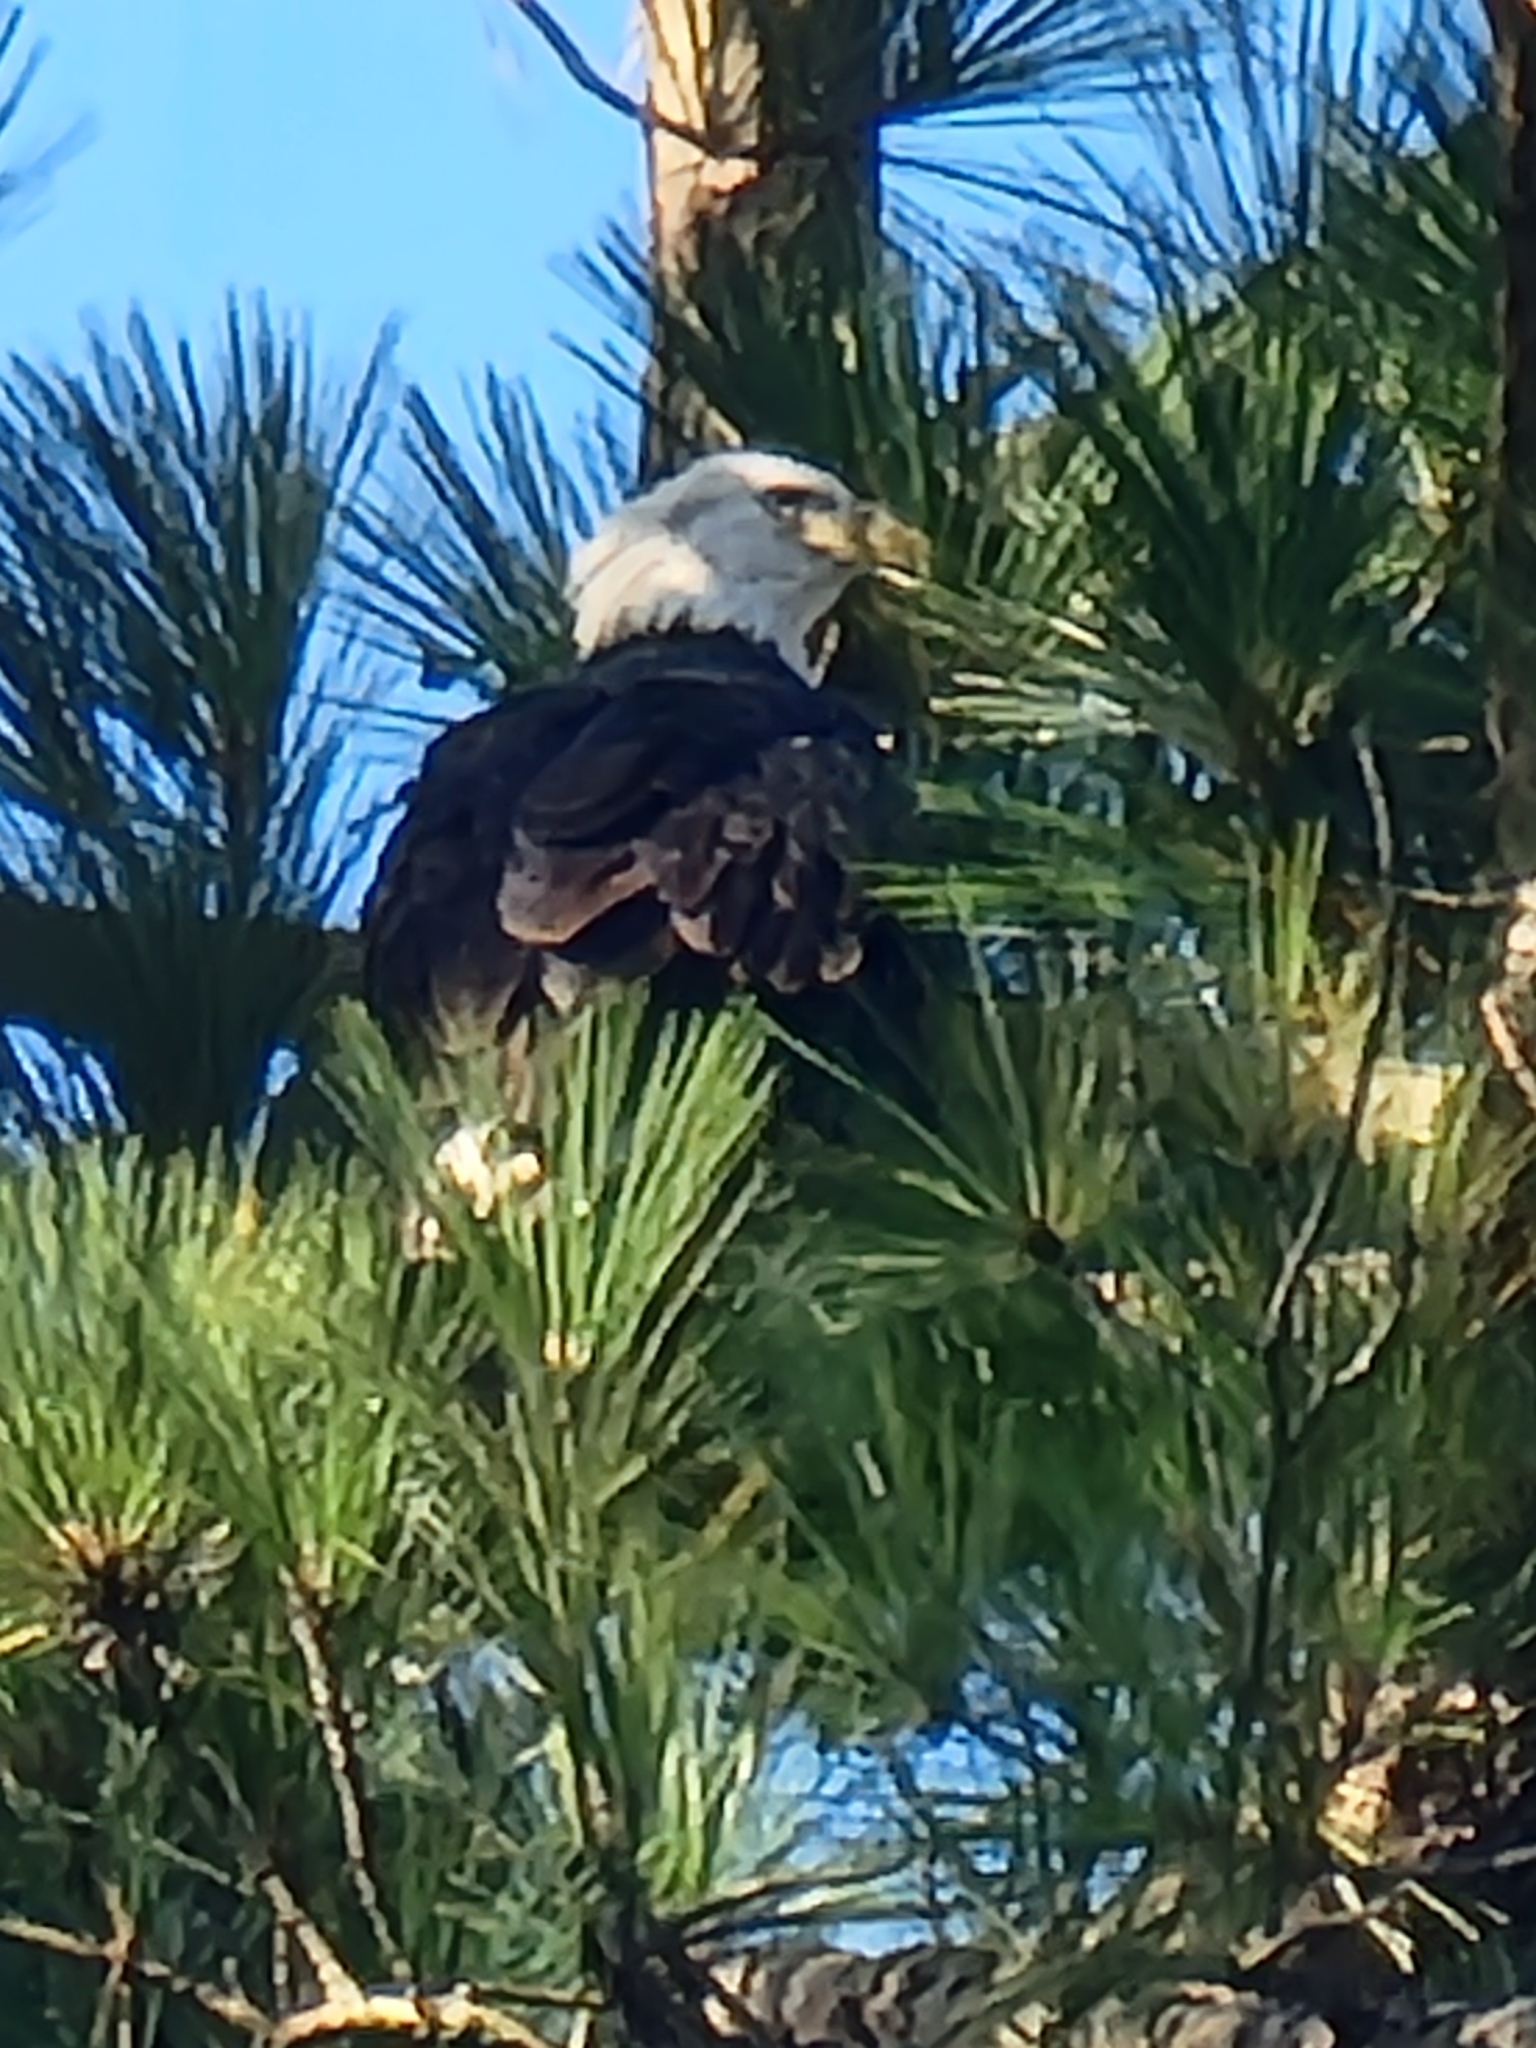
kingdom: Animalia
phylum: Chordata
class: Aves
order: Accipitriformes
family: Accipitridae
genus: Haliaeetus
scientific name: Haliaeetus leucocephalus
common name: Bald eagle
